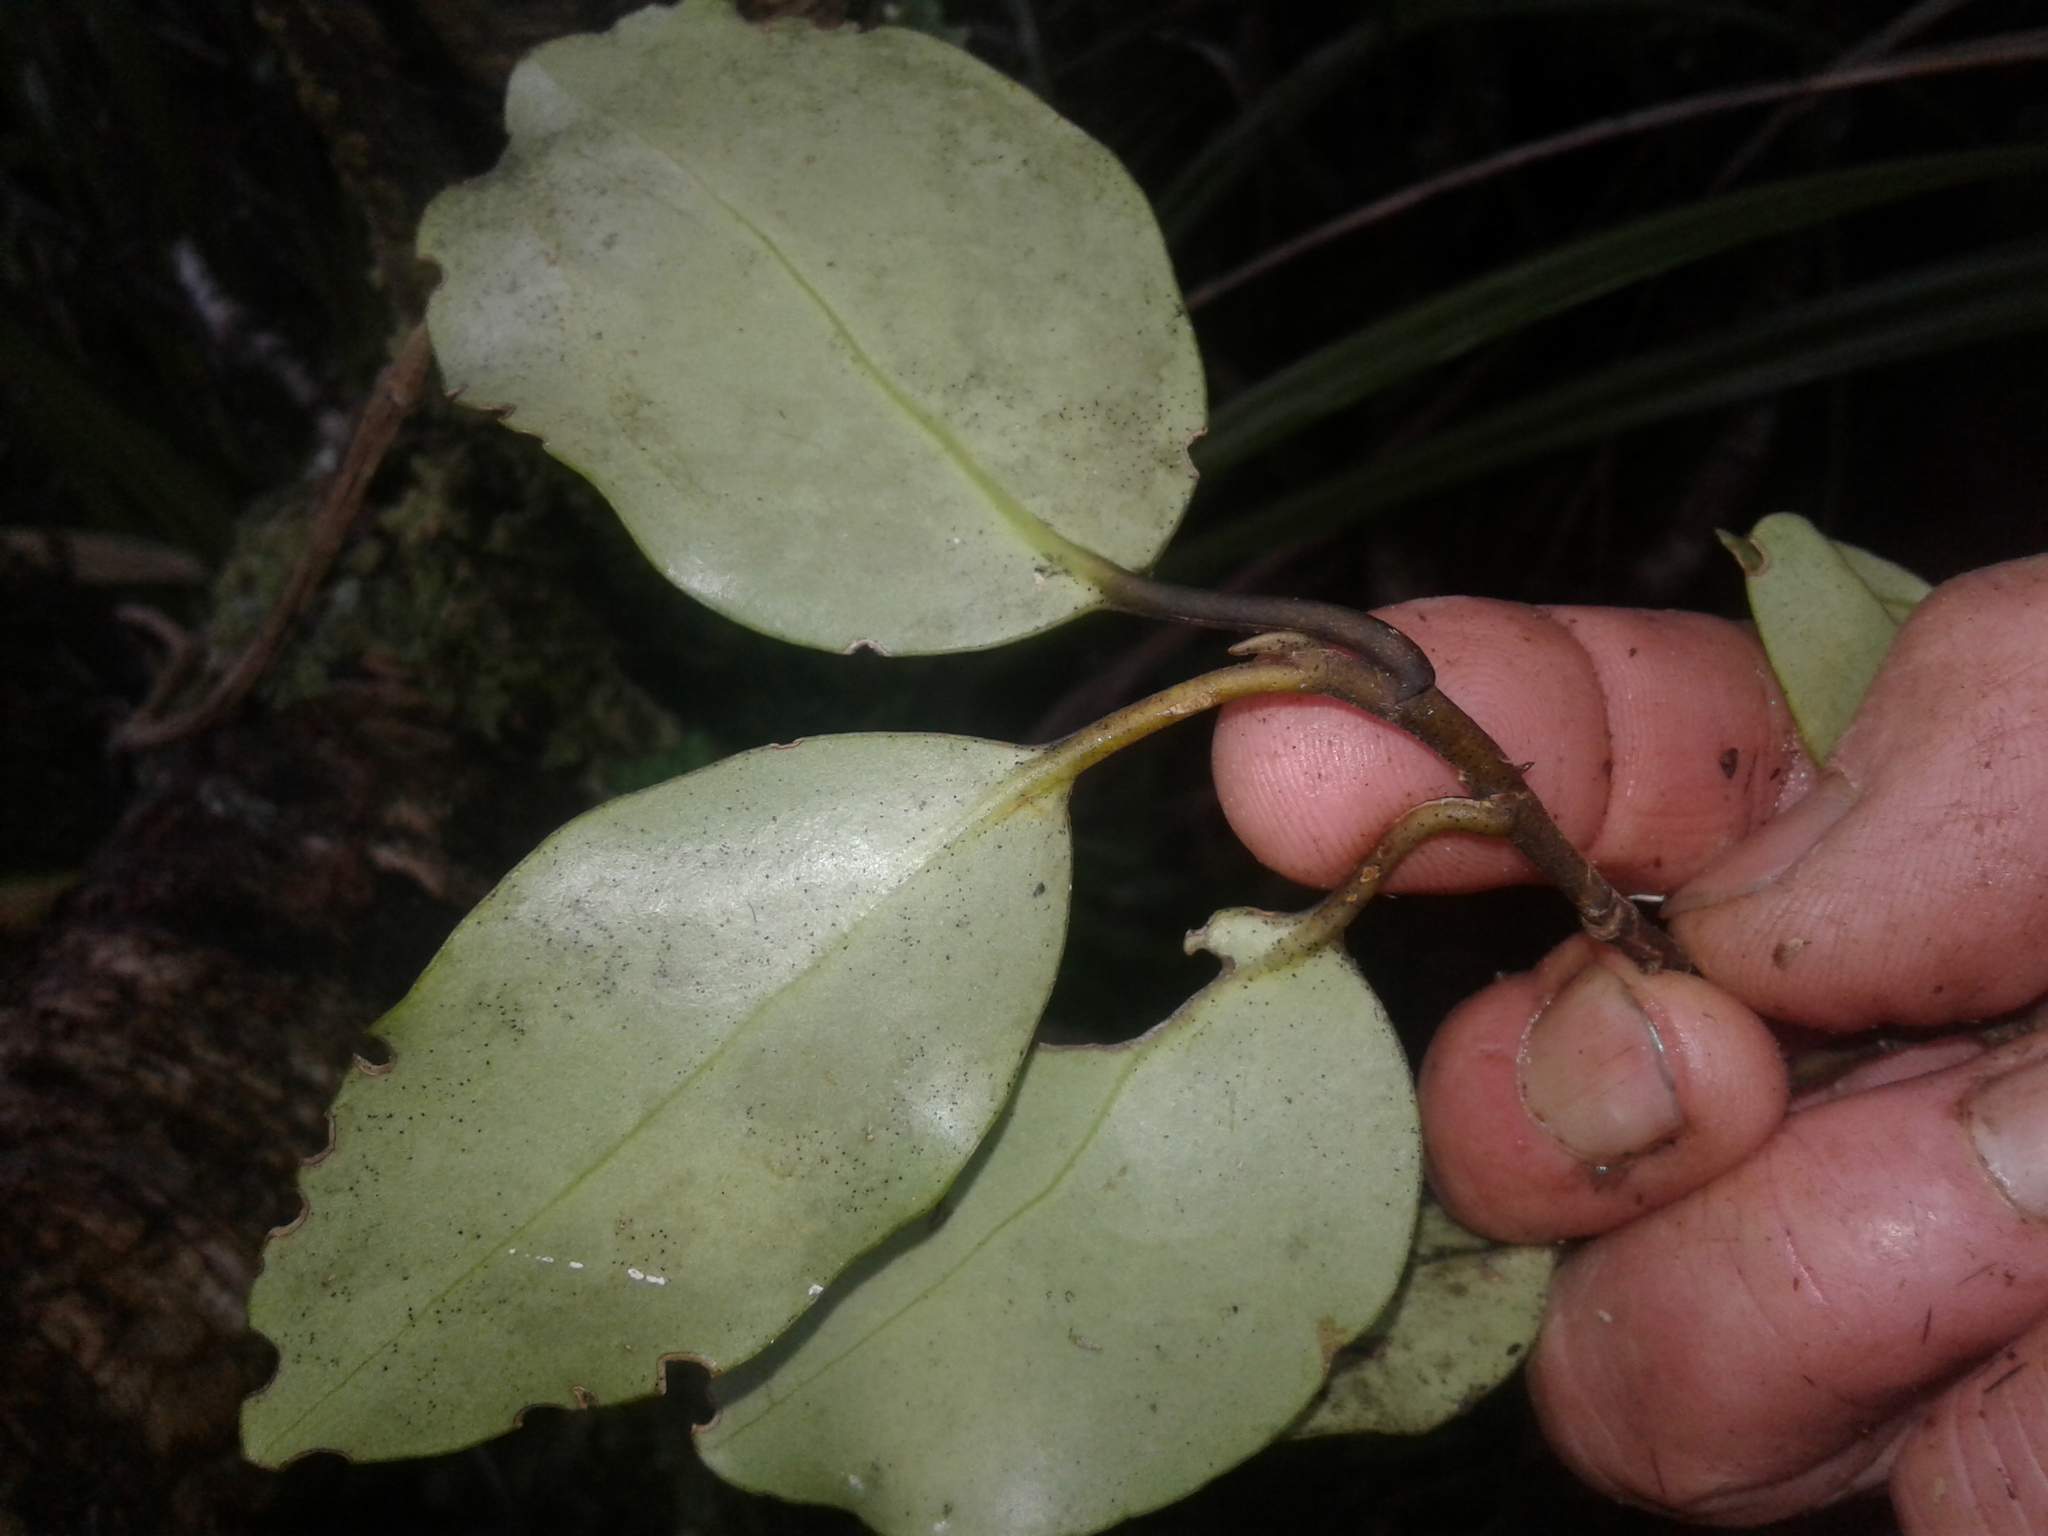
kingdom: Plantae
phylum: Tracheophyta
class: Magnoliopsida
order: Apiales
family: Griseliniaceae
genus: Griselinia
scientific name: Griselinia littoralis
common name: New zealand broadleaf
